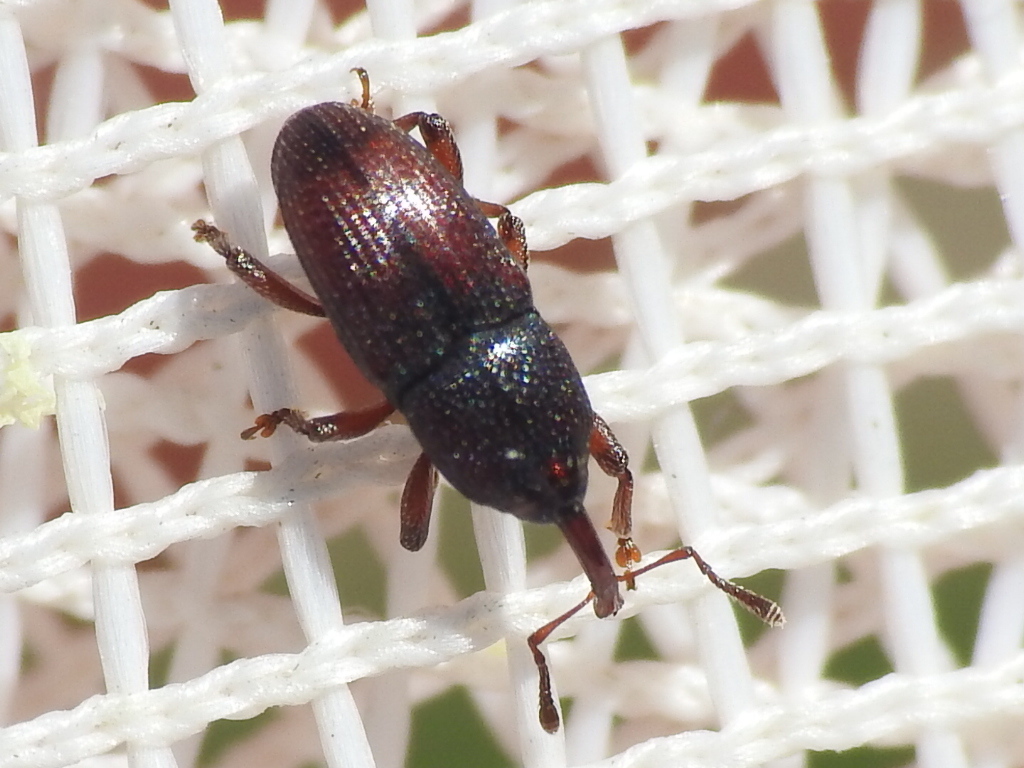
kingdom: Animalia
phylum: Arthropoda
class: Insecta
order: Coleoptera
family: Curculionidae
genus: Apinocis
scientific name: Apinocis
